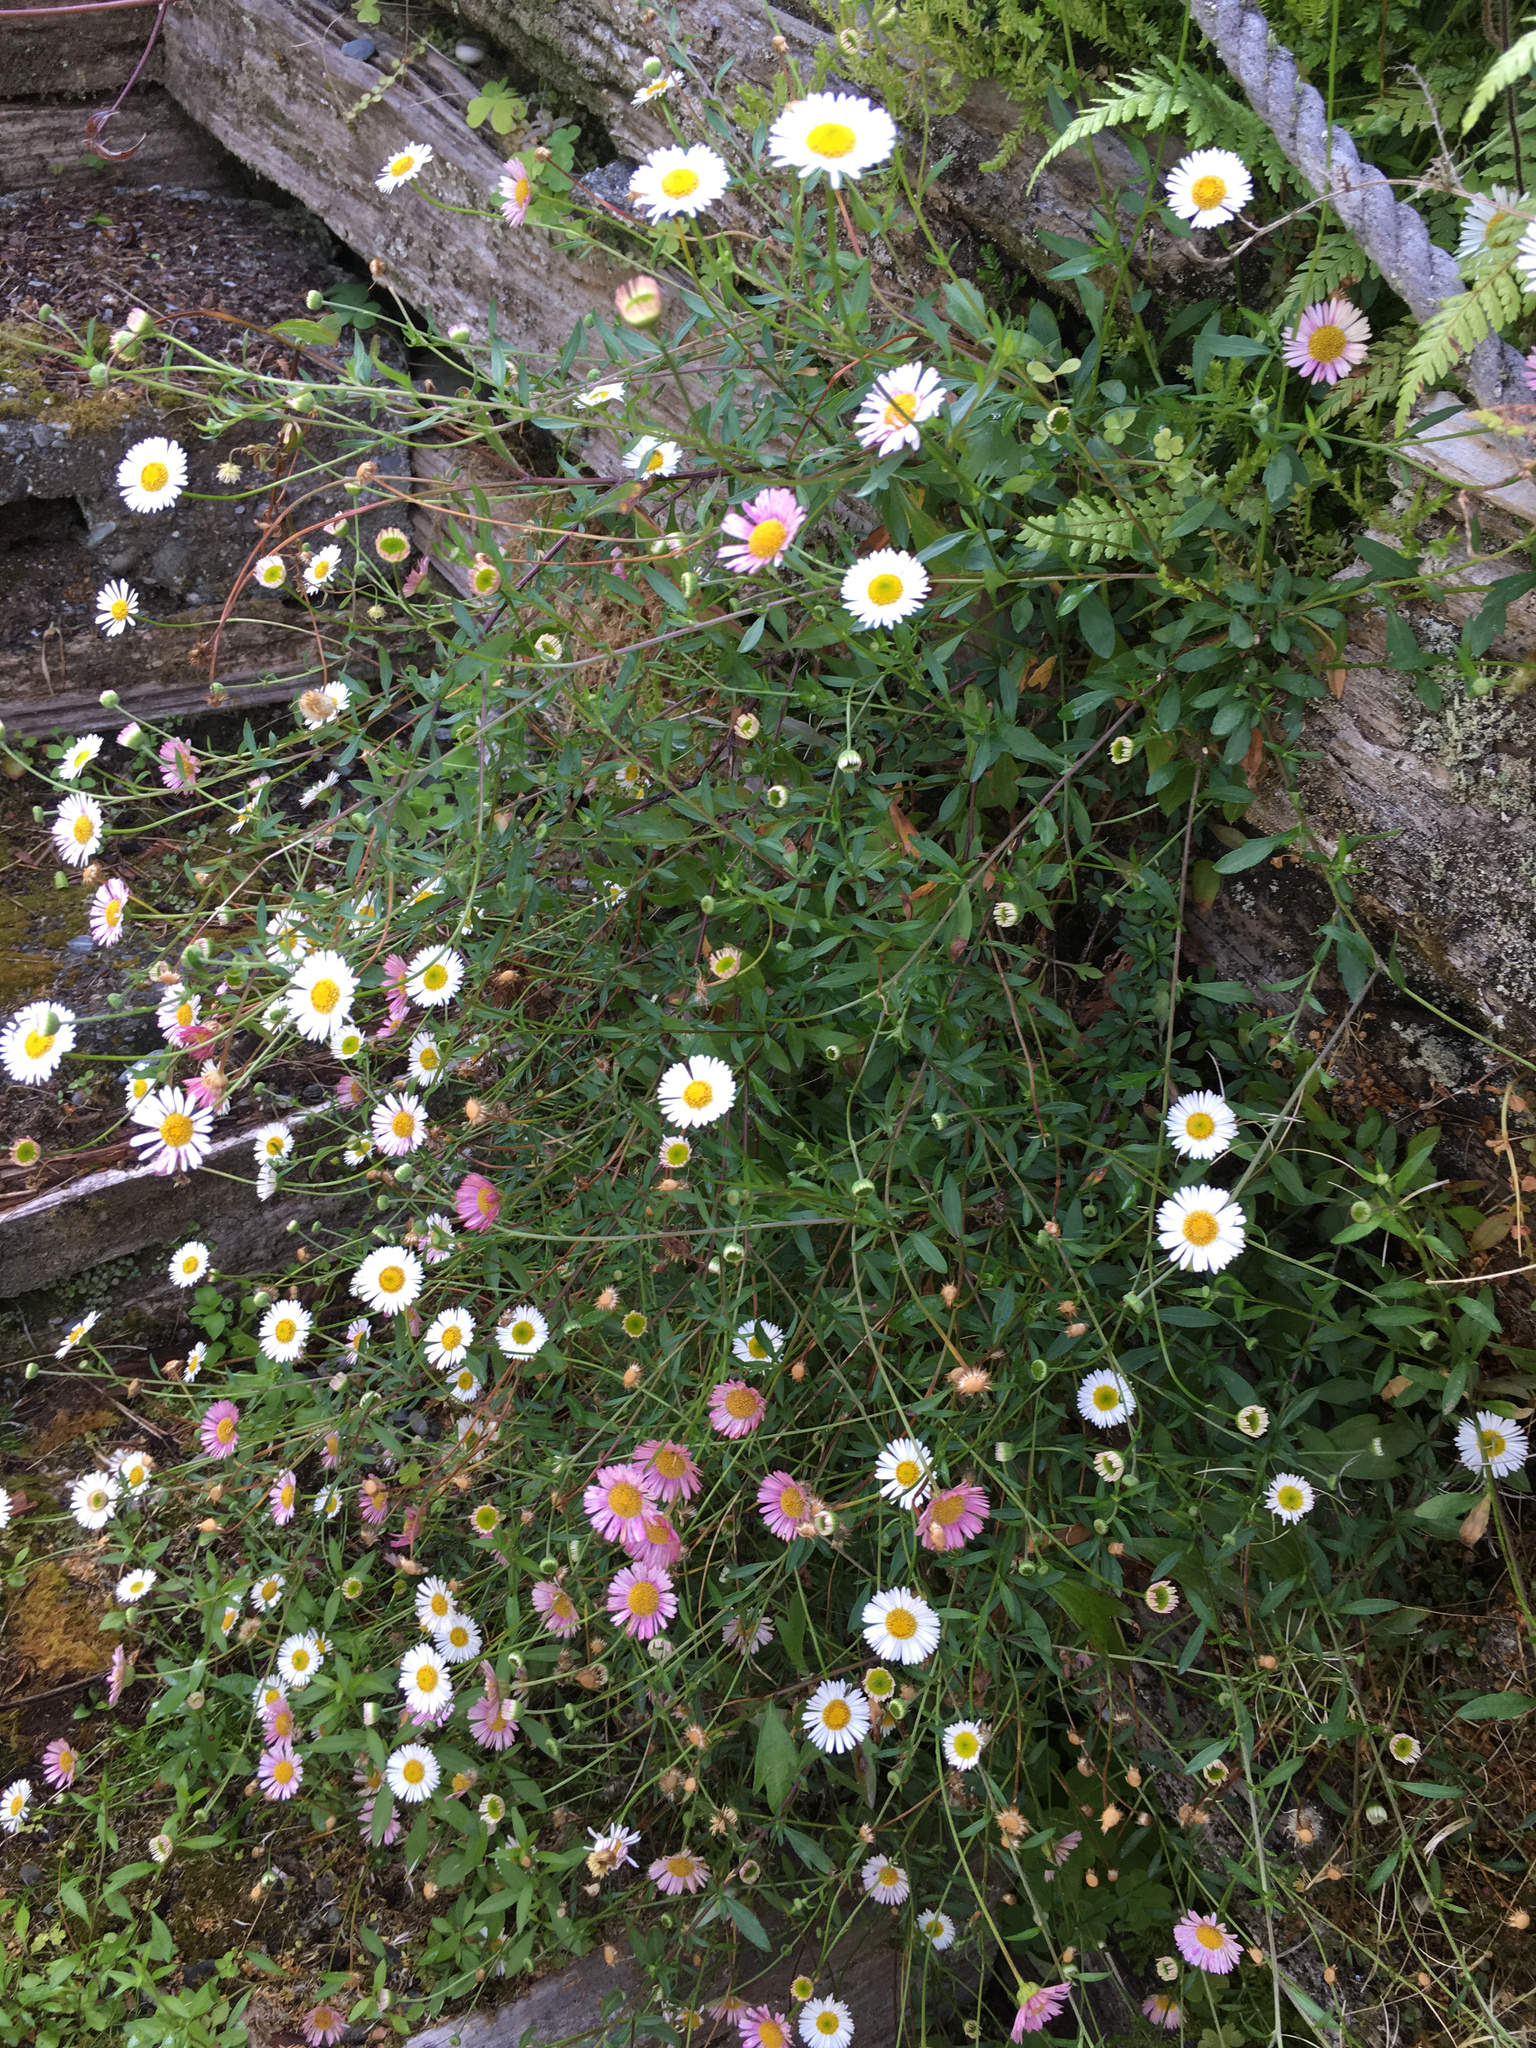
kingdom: Plantae
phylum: Tracheophyta
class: Magnoliopsida
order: Asterales
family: Asteraceae
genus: Erigeron
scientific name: Erigeron karvinskianus
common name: Mexican fleabane
